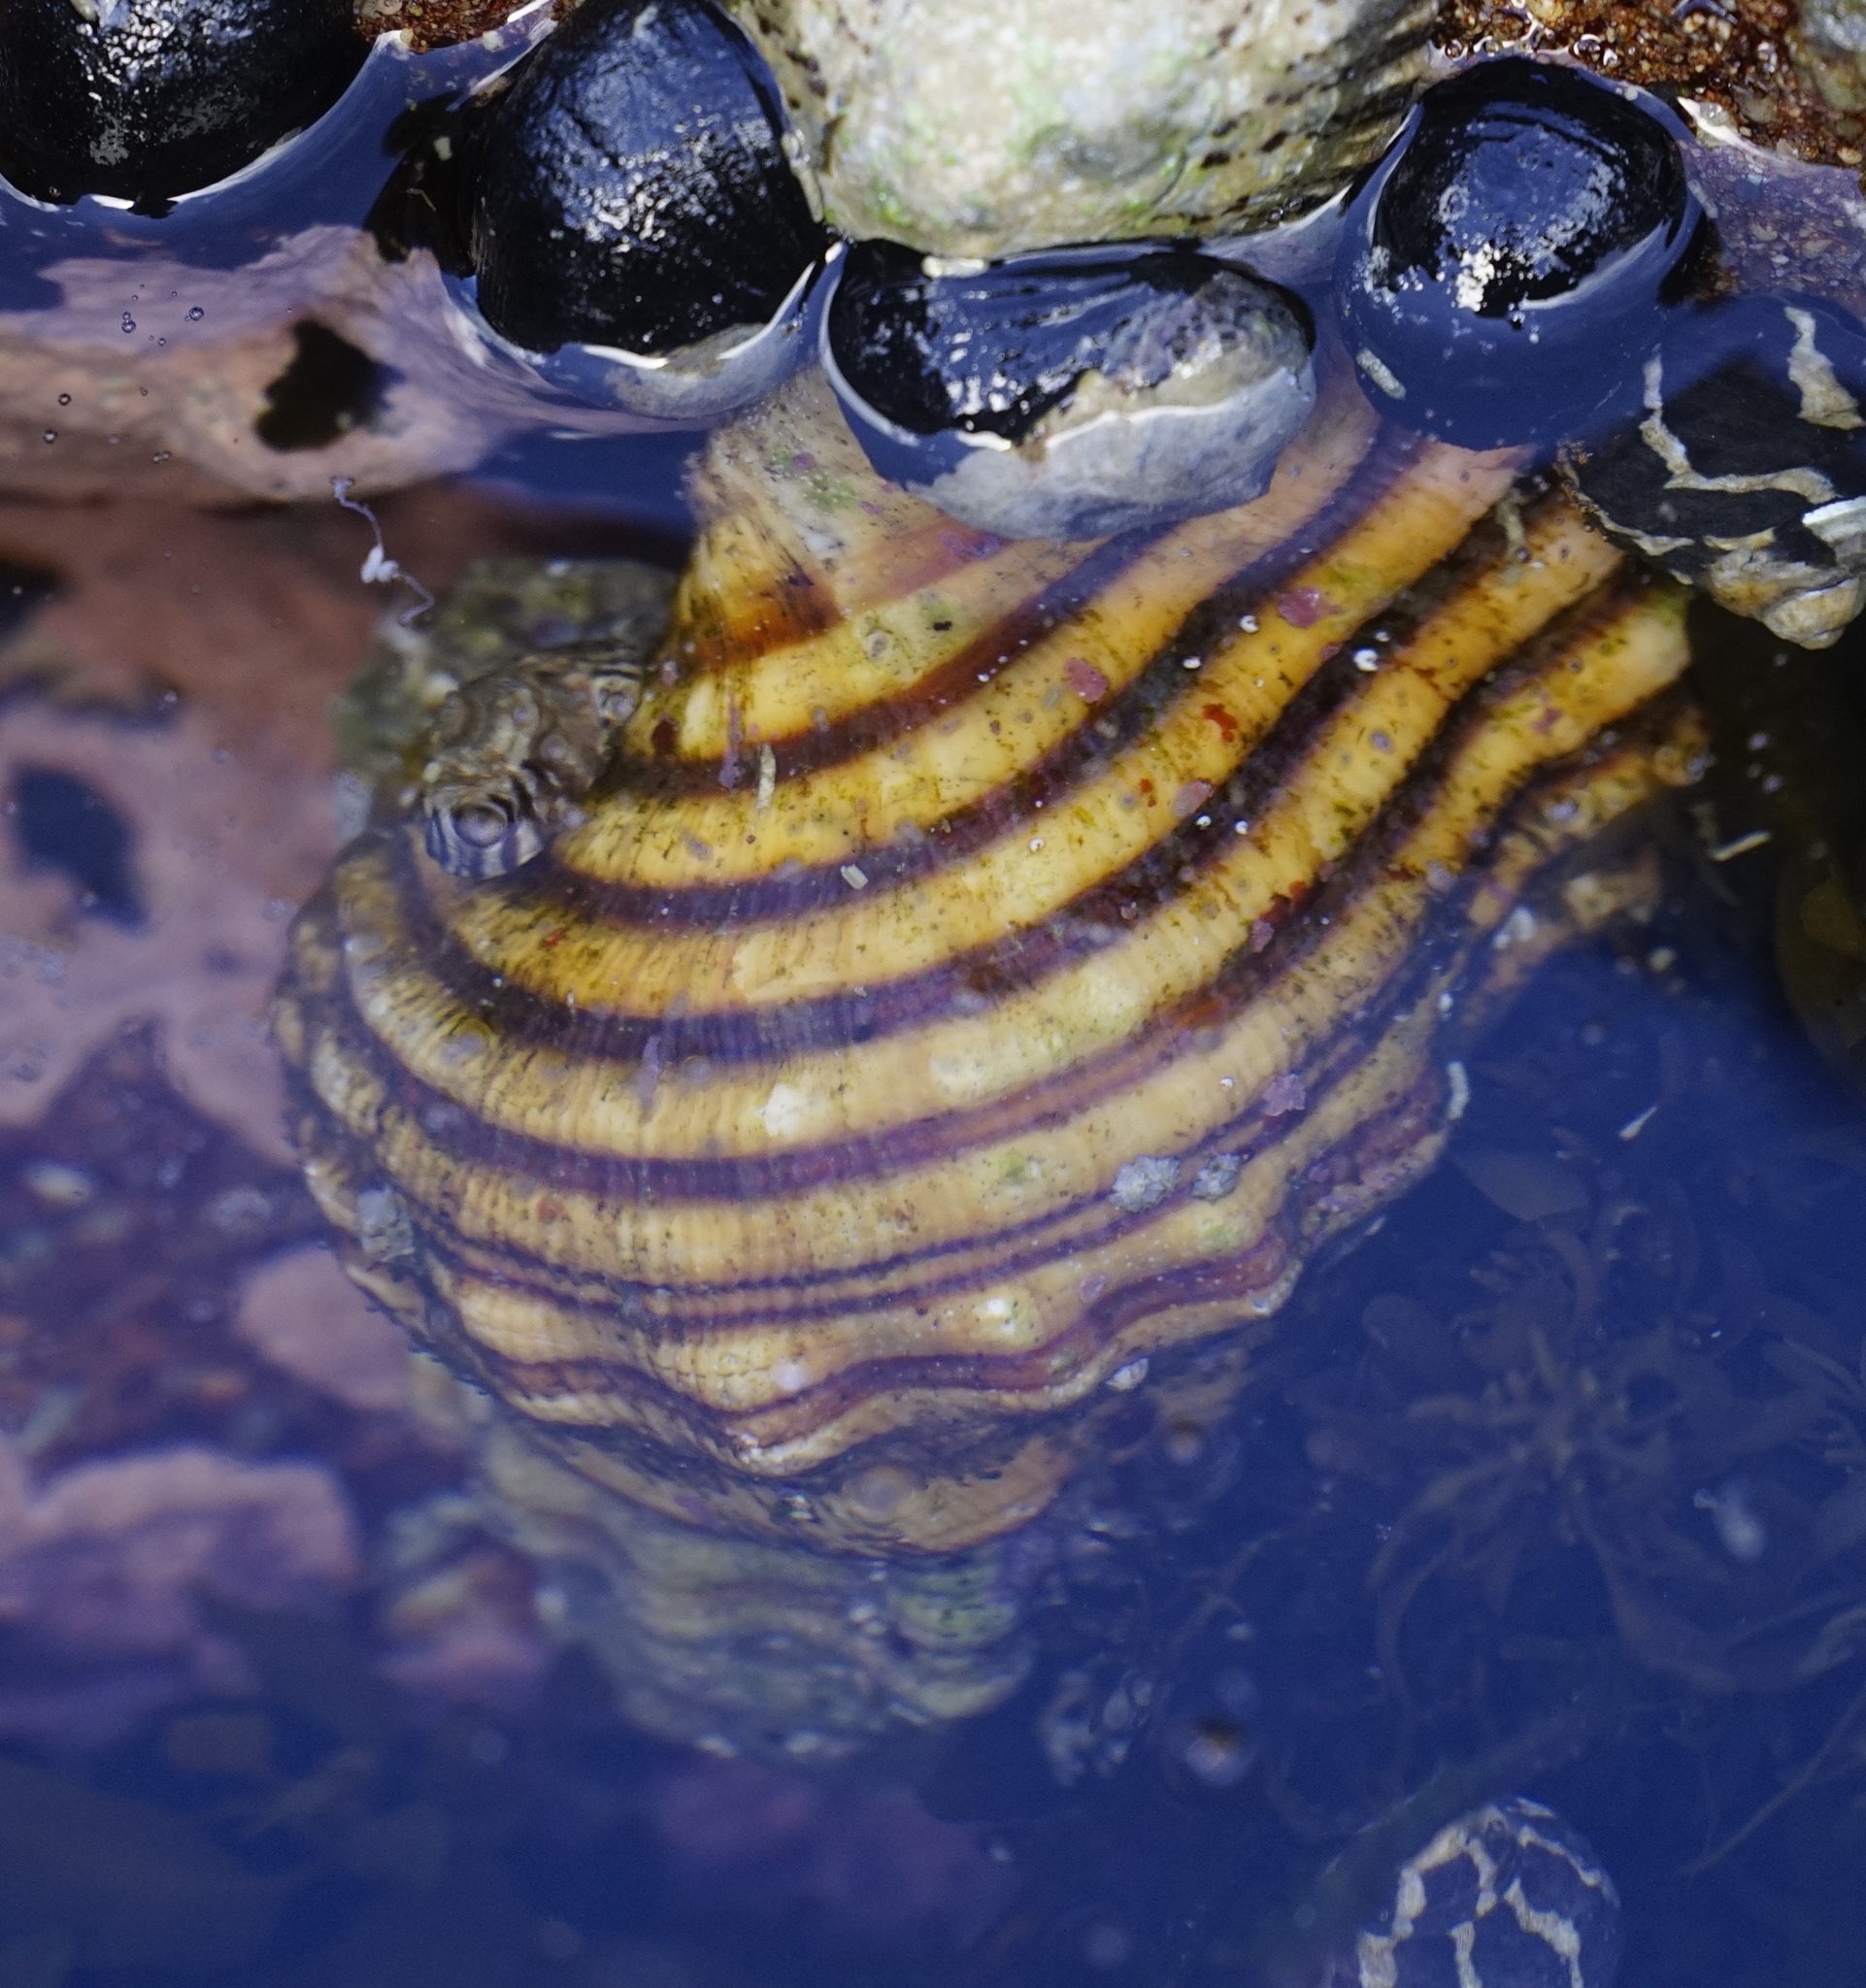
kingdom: Animalia
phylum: Mollusca
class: Gastropoda
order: Littorinimorpha
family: Cymatiidae
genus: Cabestana
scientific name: Cabestana spengleri
